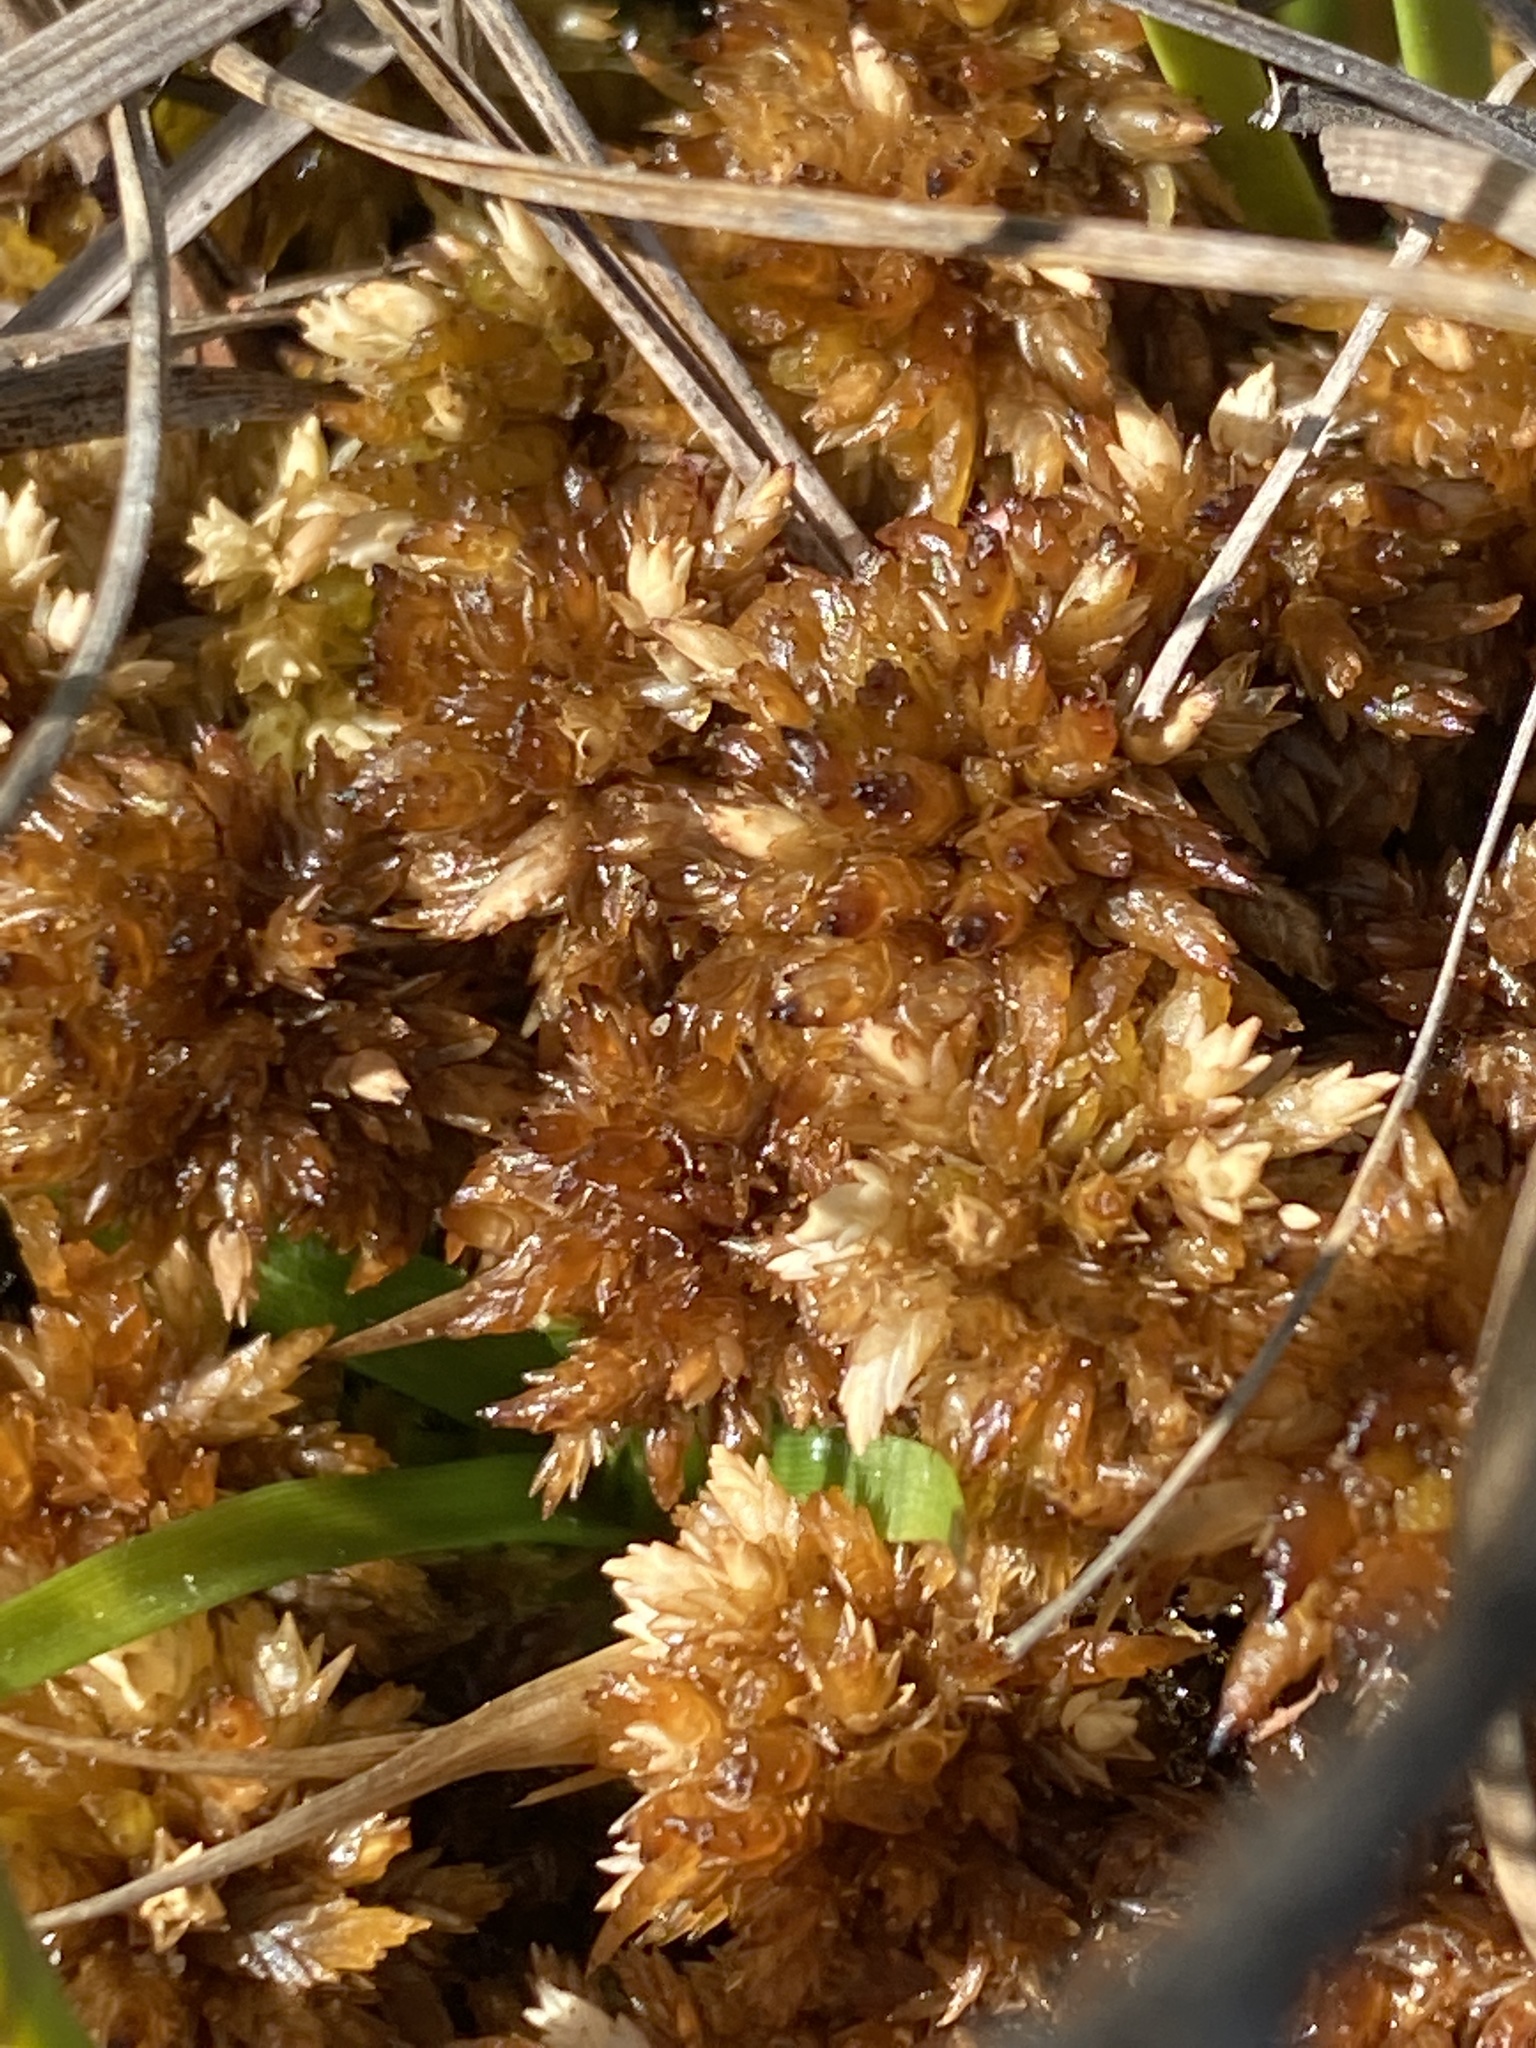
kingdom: Plantae
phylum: Bryophyta
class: Sphagnopsida
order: Sphagnales
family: Sphagnaceae
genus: Sphagnum
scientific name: Sphagnum perichaetiale
